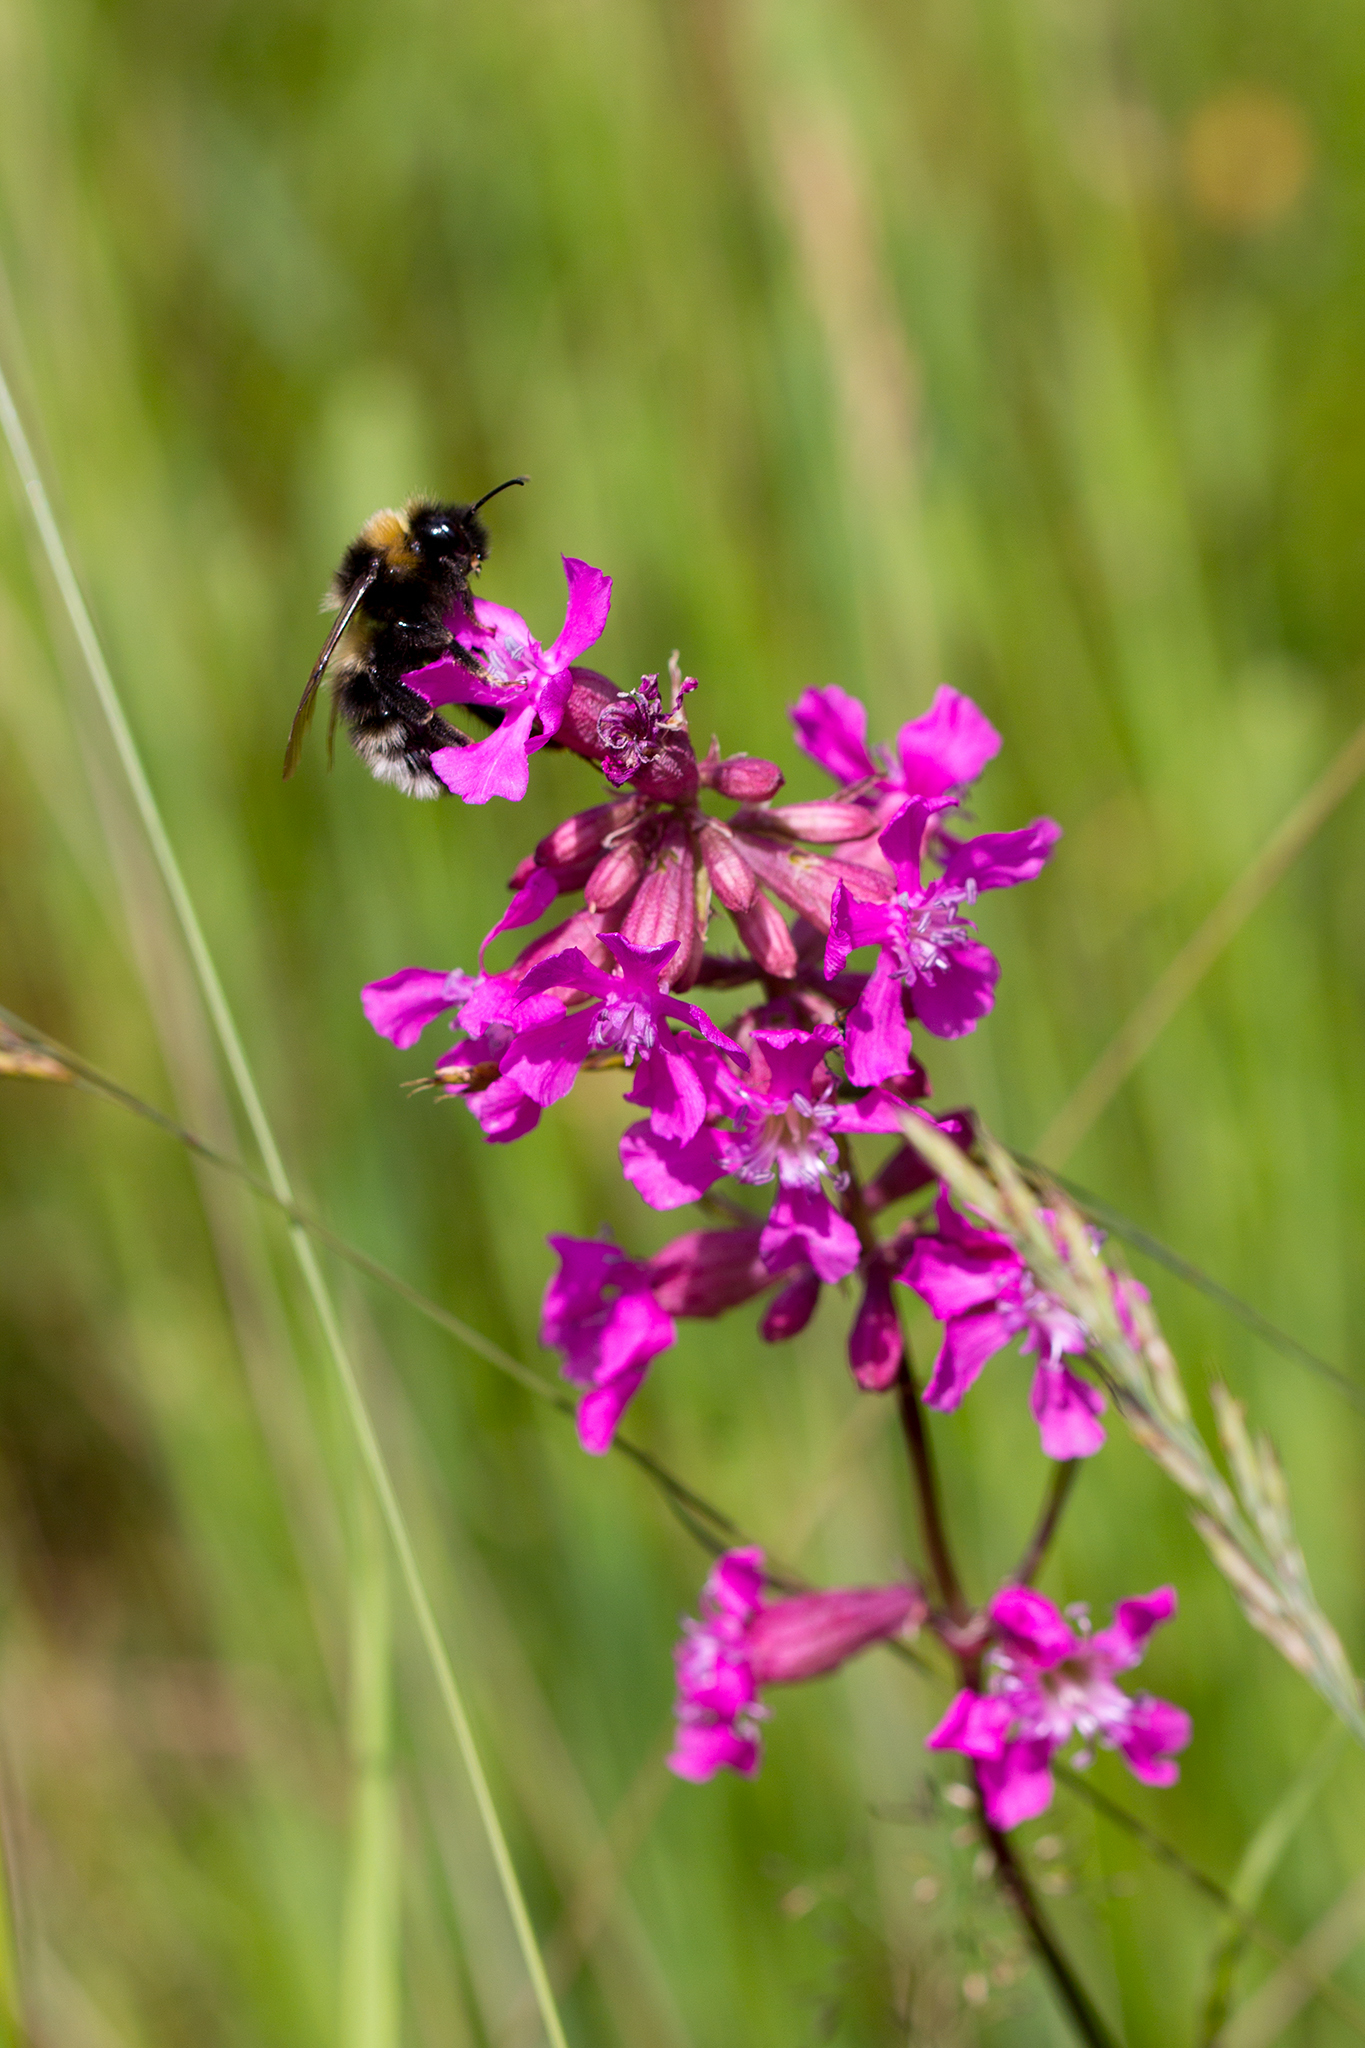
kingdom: Plantae
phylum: Tracheophyta
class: Magnoliopsida
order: Caryophyllales
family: Caryophyllaceae
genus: Viscaria
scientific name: Viscaria vulgaris
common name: Clammy campion
